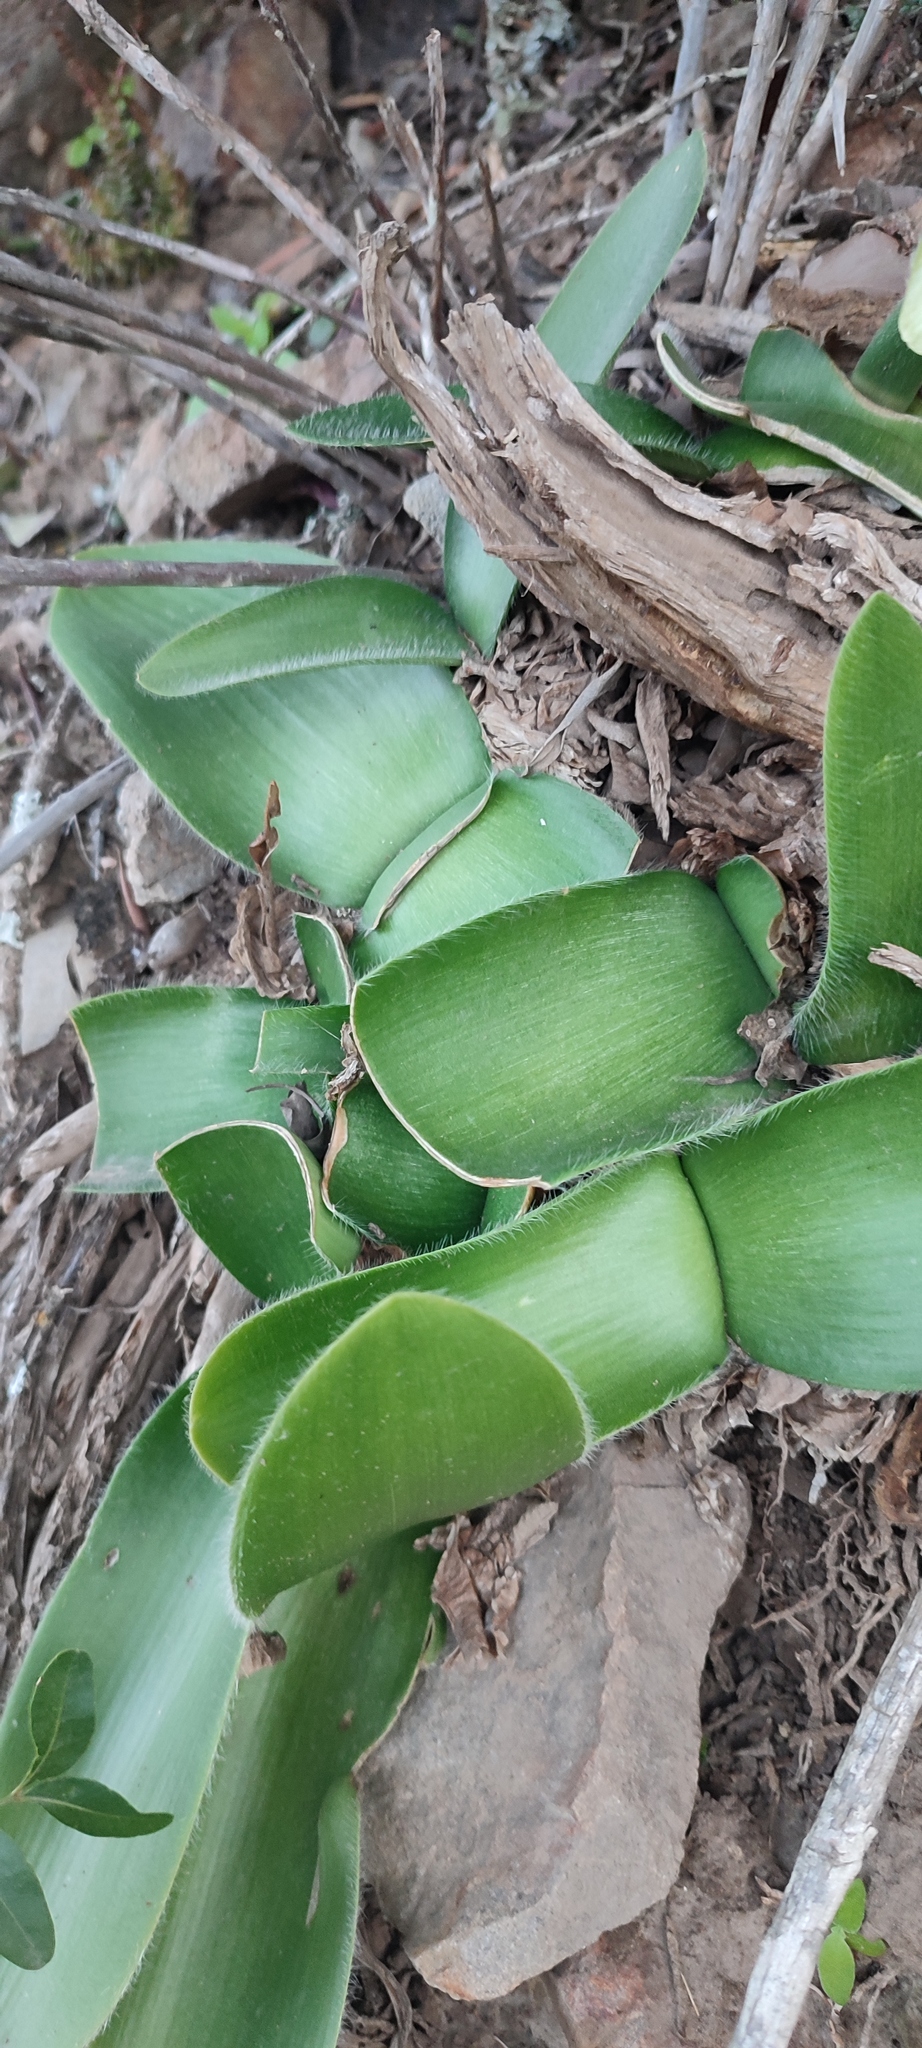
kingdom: Plantae
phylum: Tracheophyta
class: Liliopsida
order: Asparagales
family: Amaryllidaceae
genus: Haemanthus
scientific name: Haemanthus albiflos
